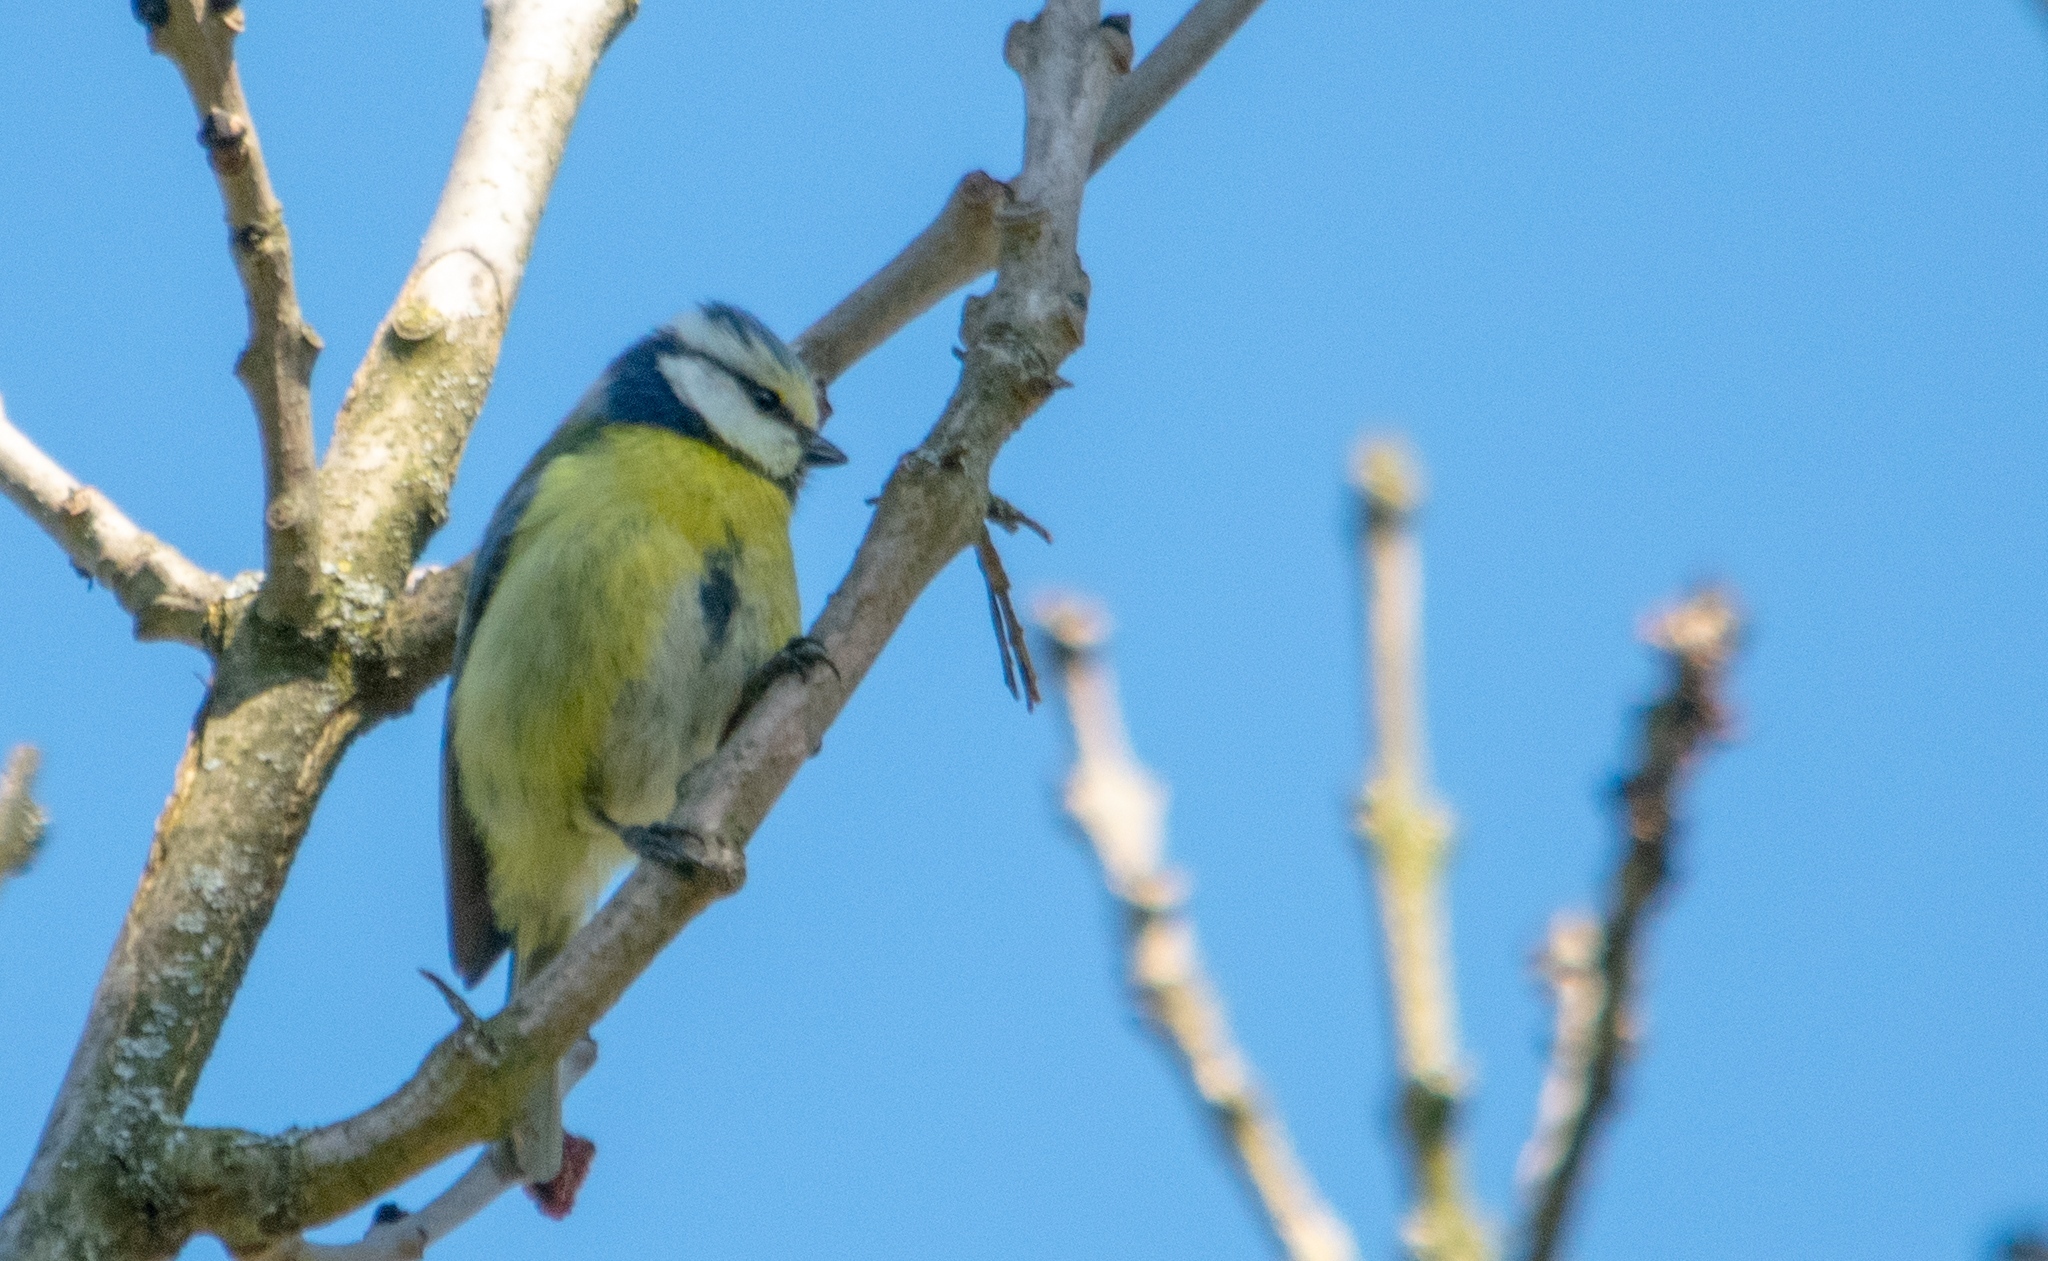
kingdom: Animalia
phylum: Chordata
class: Aves
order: Passeriformes
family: Paridae
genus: Cyanistes
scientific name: Cyanistes caeruleus
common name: Eurasian blue tit
